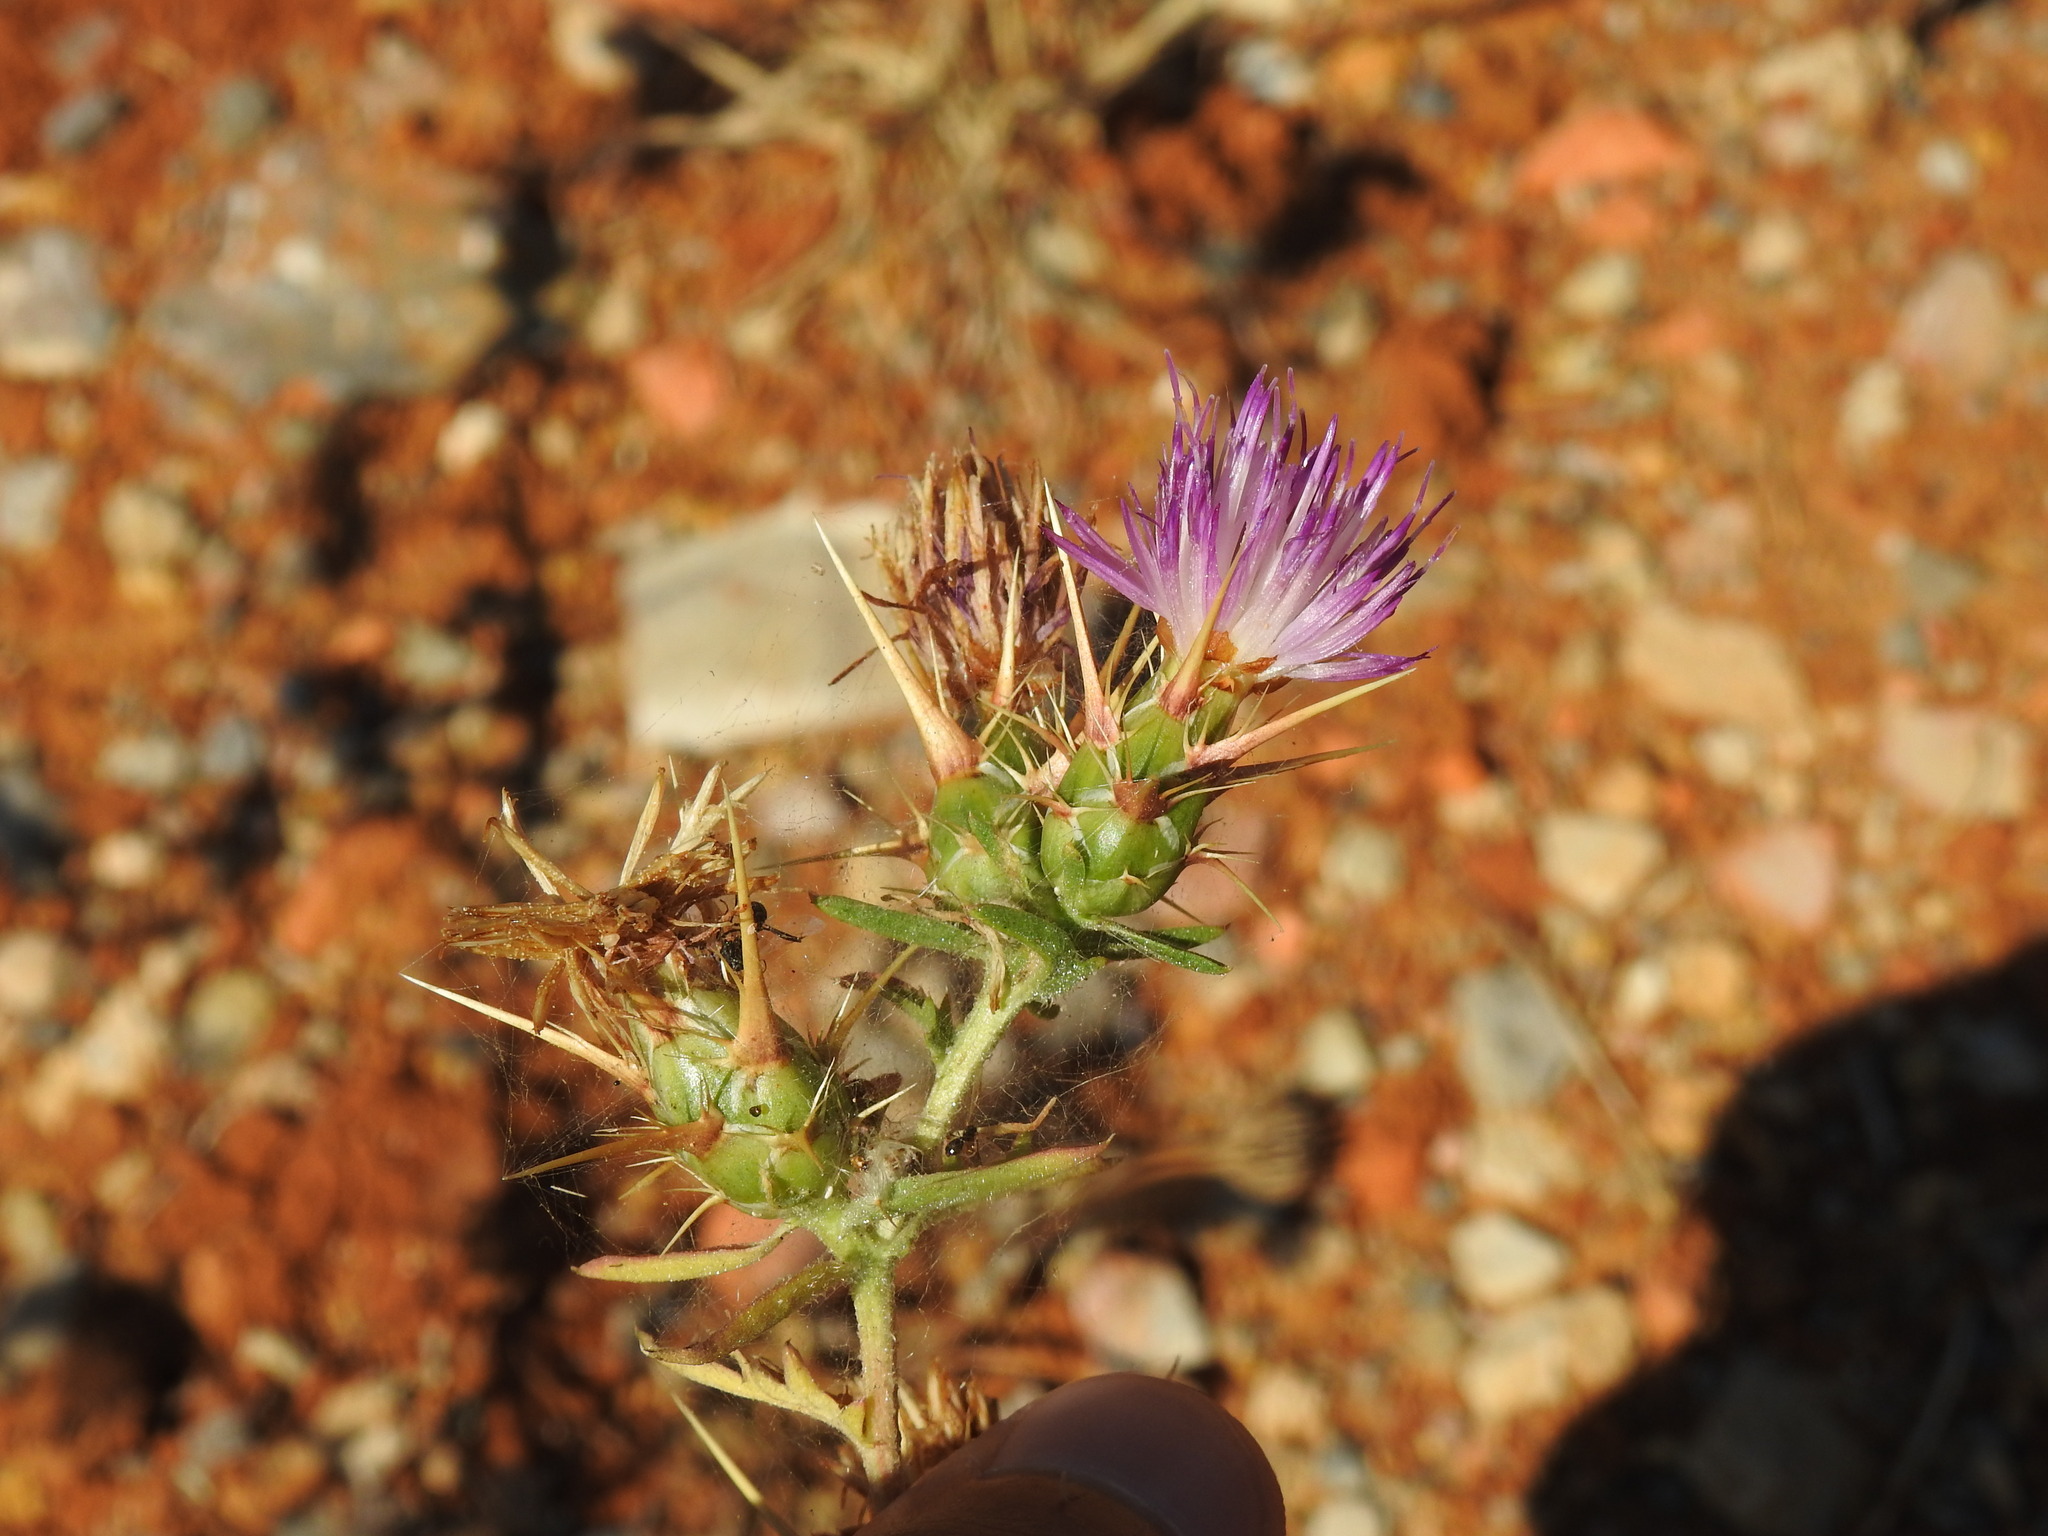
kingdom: Plantae
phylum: Tracheophyta
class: Magnoliopsida
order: Asterales
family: Asteraceae
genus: Centaurea
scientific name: Centaurea calcitrapa
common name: Red star-thistle
